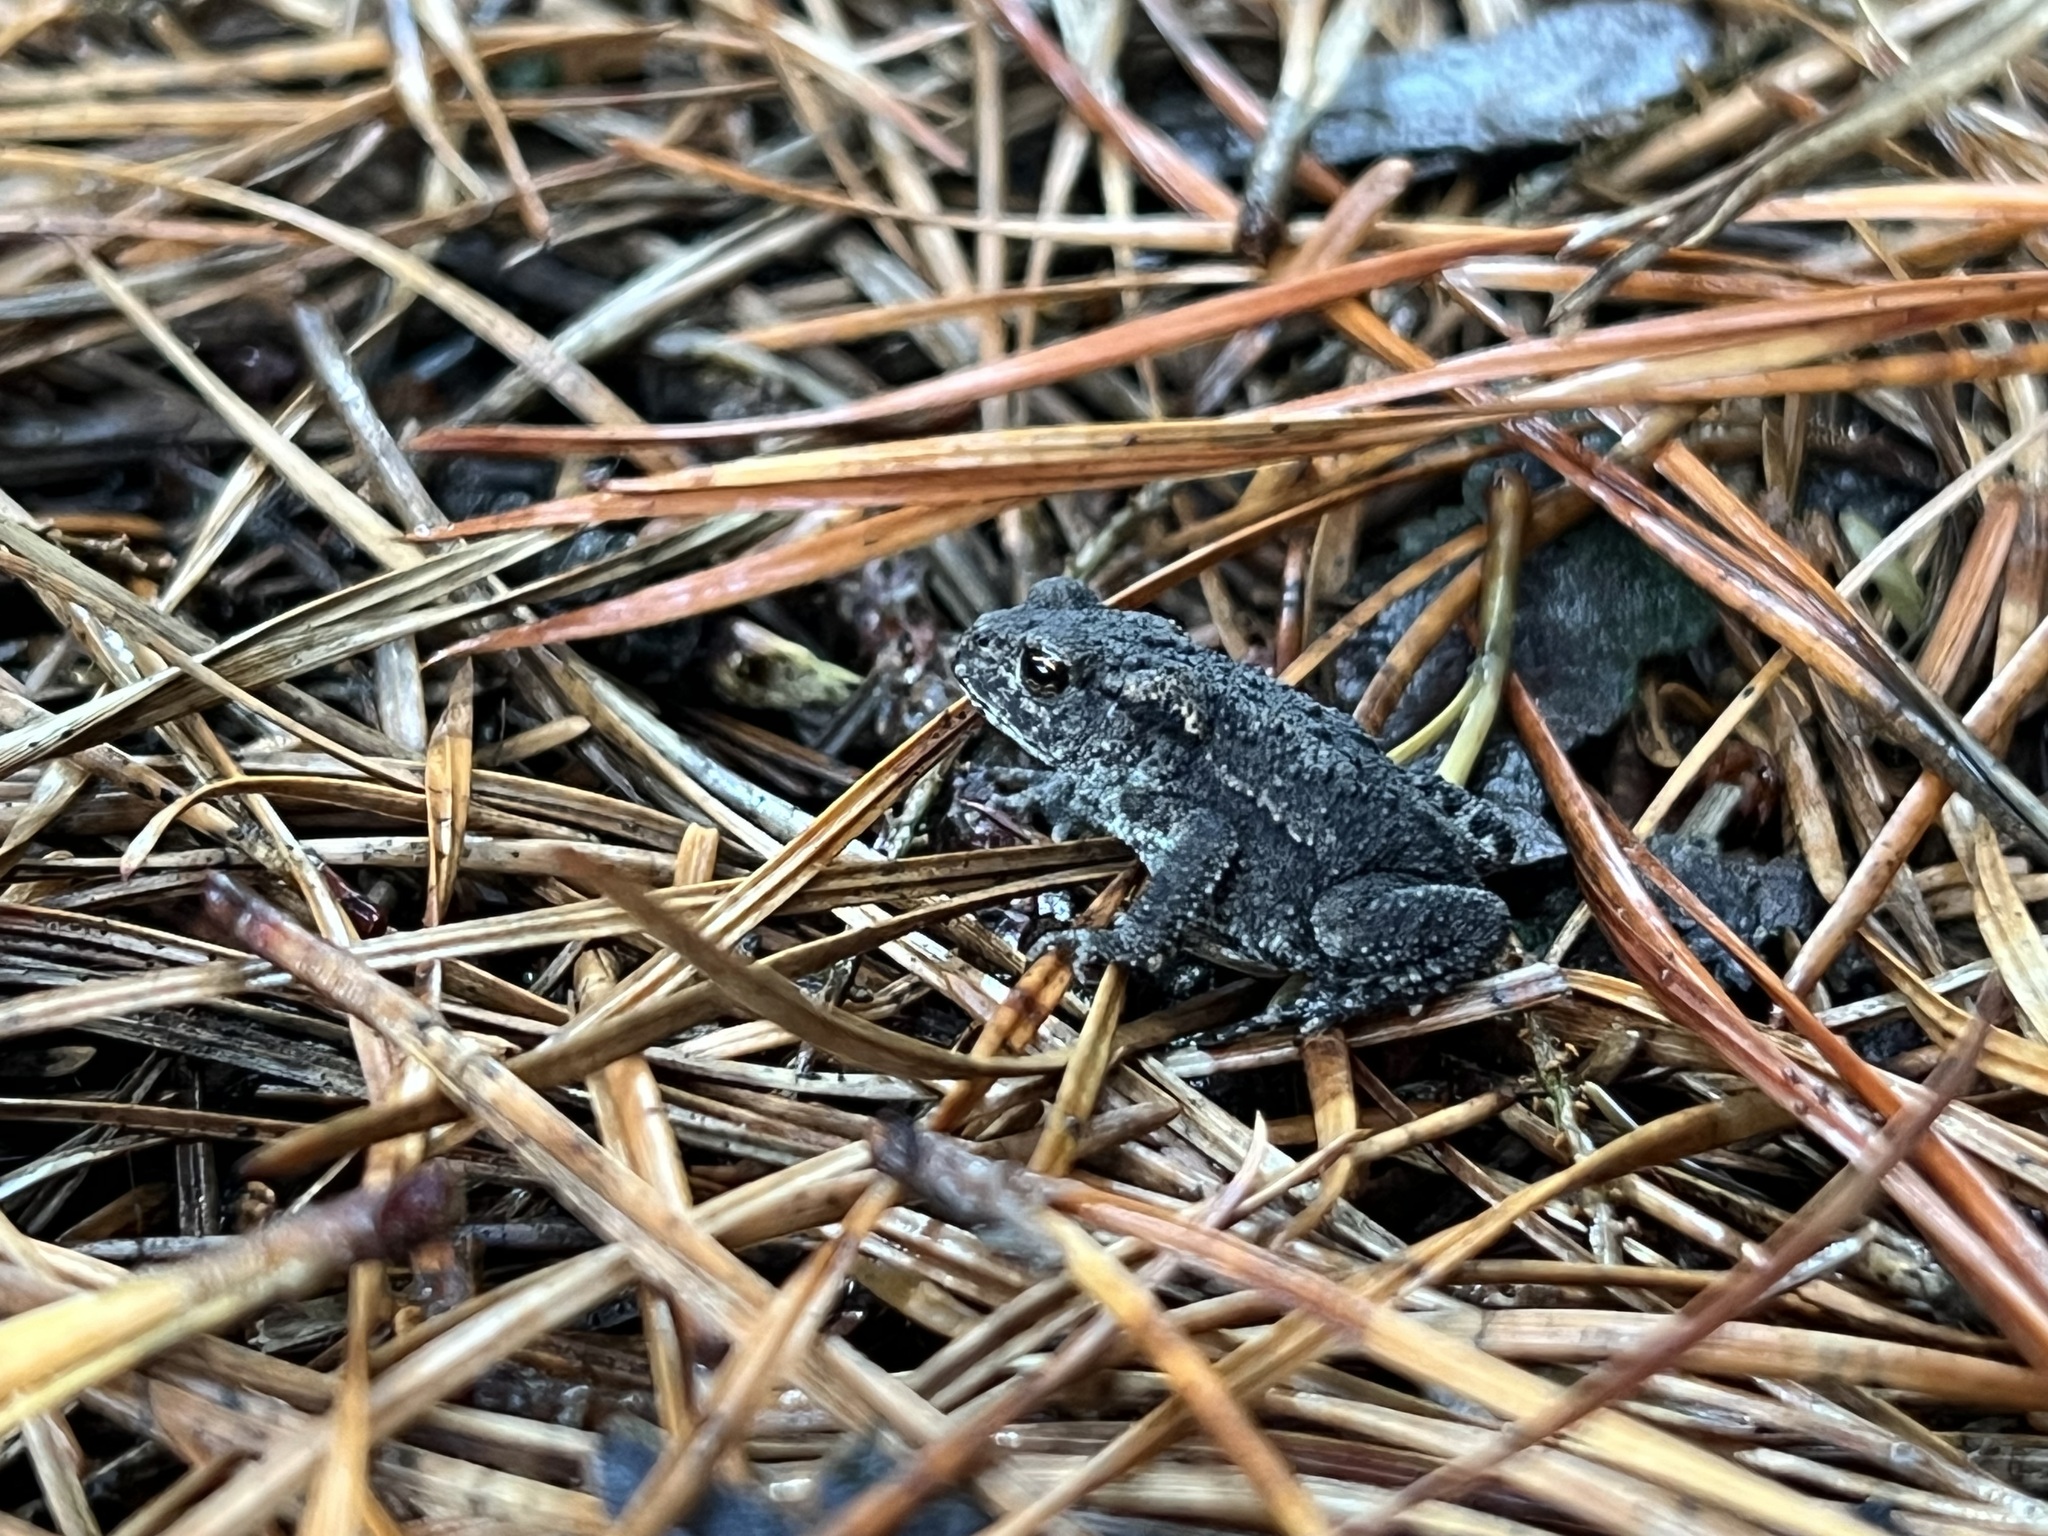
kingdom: Animalia
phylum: Chordata
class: Amphibia
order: Anura
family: Bufonidae
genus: Bufo
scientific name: Bufo bufo
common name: Common toad
